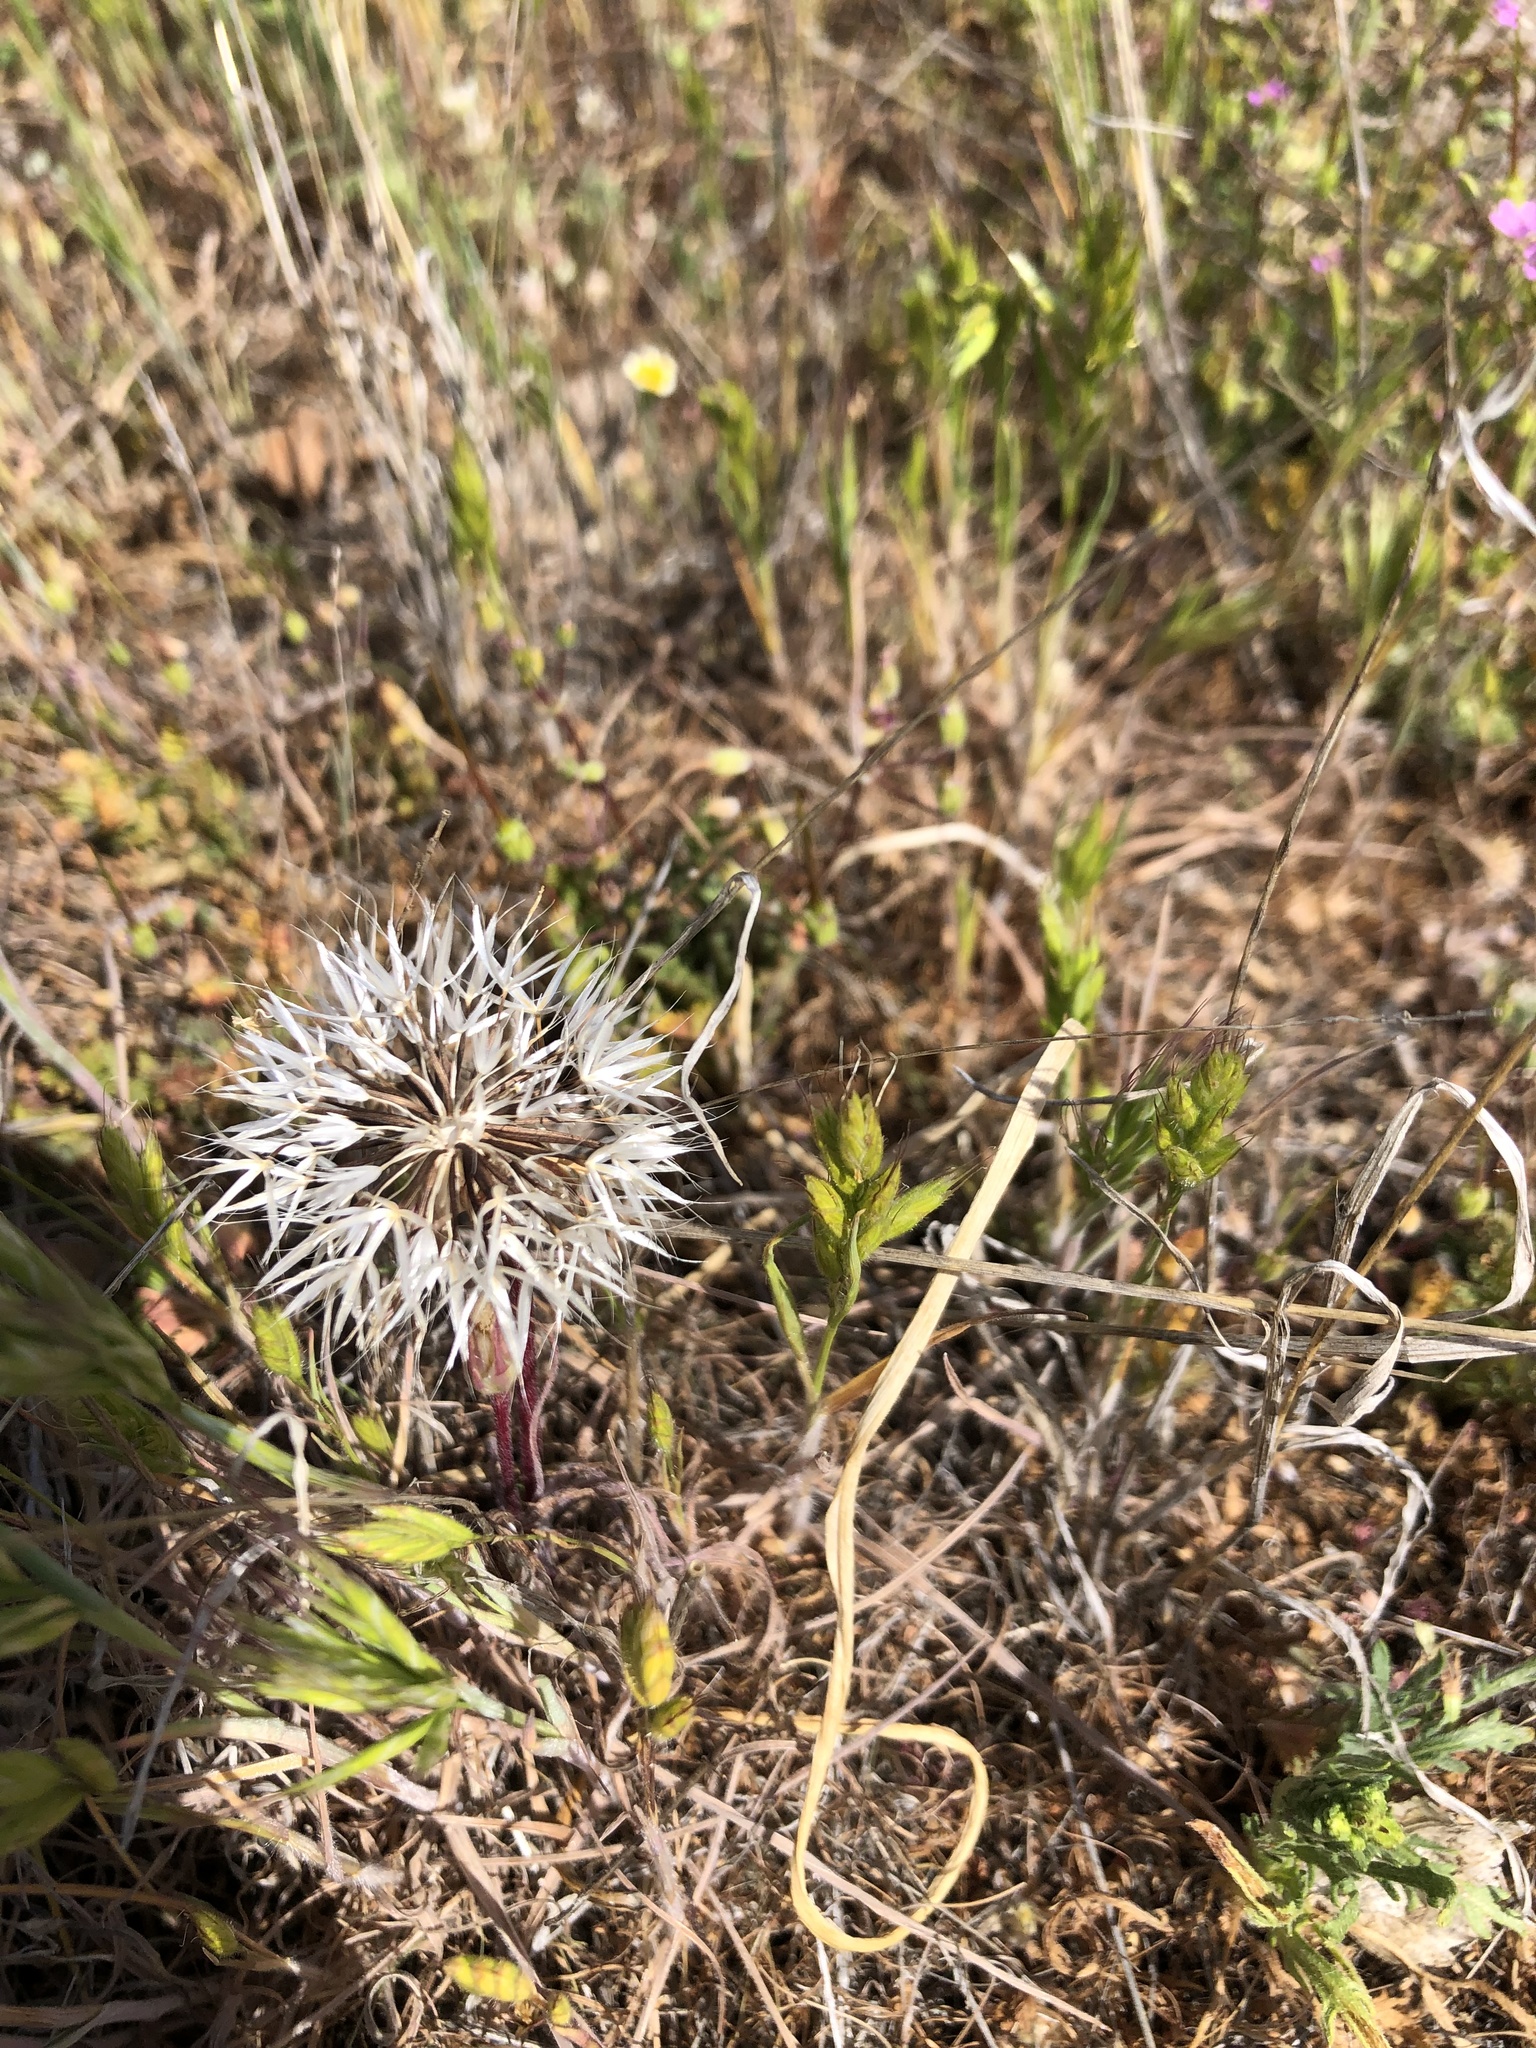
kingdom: Plantae
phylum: Tracheophyta
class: Magnoliopsida
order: Asterales
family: Asteraceae
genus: Microseris
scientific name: Microseris lindleyi
